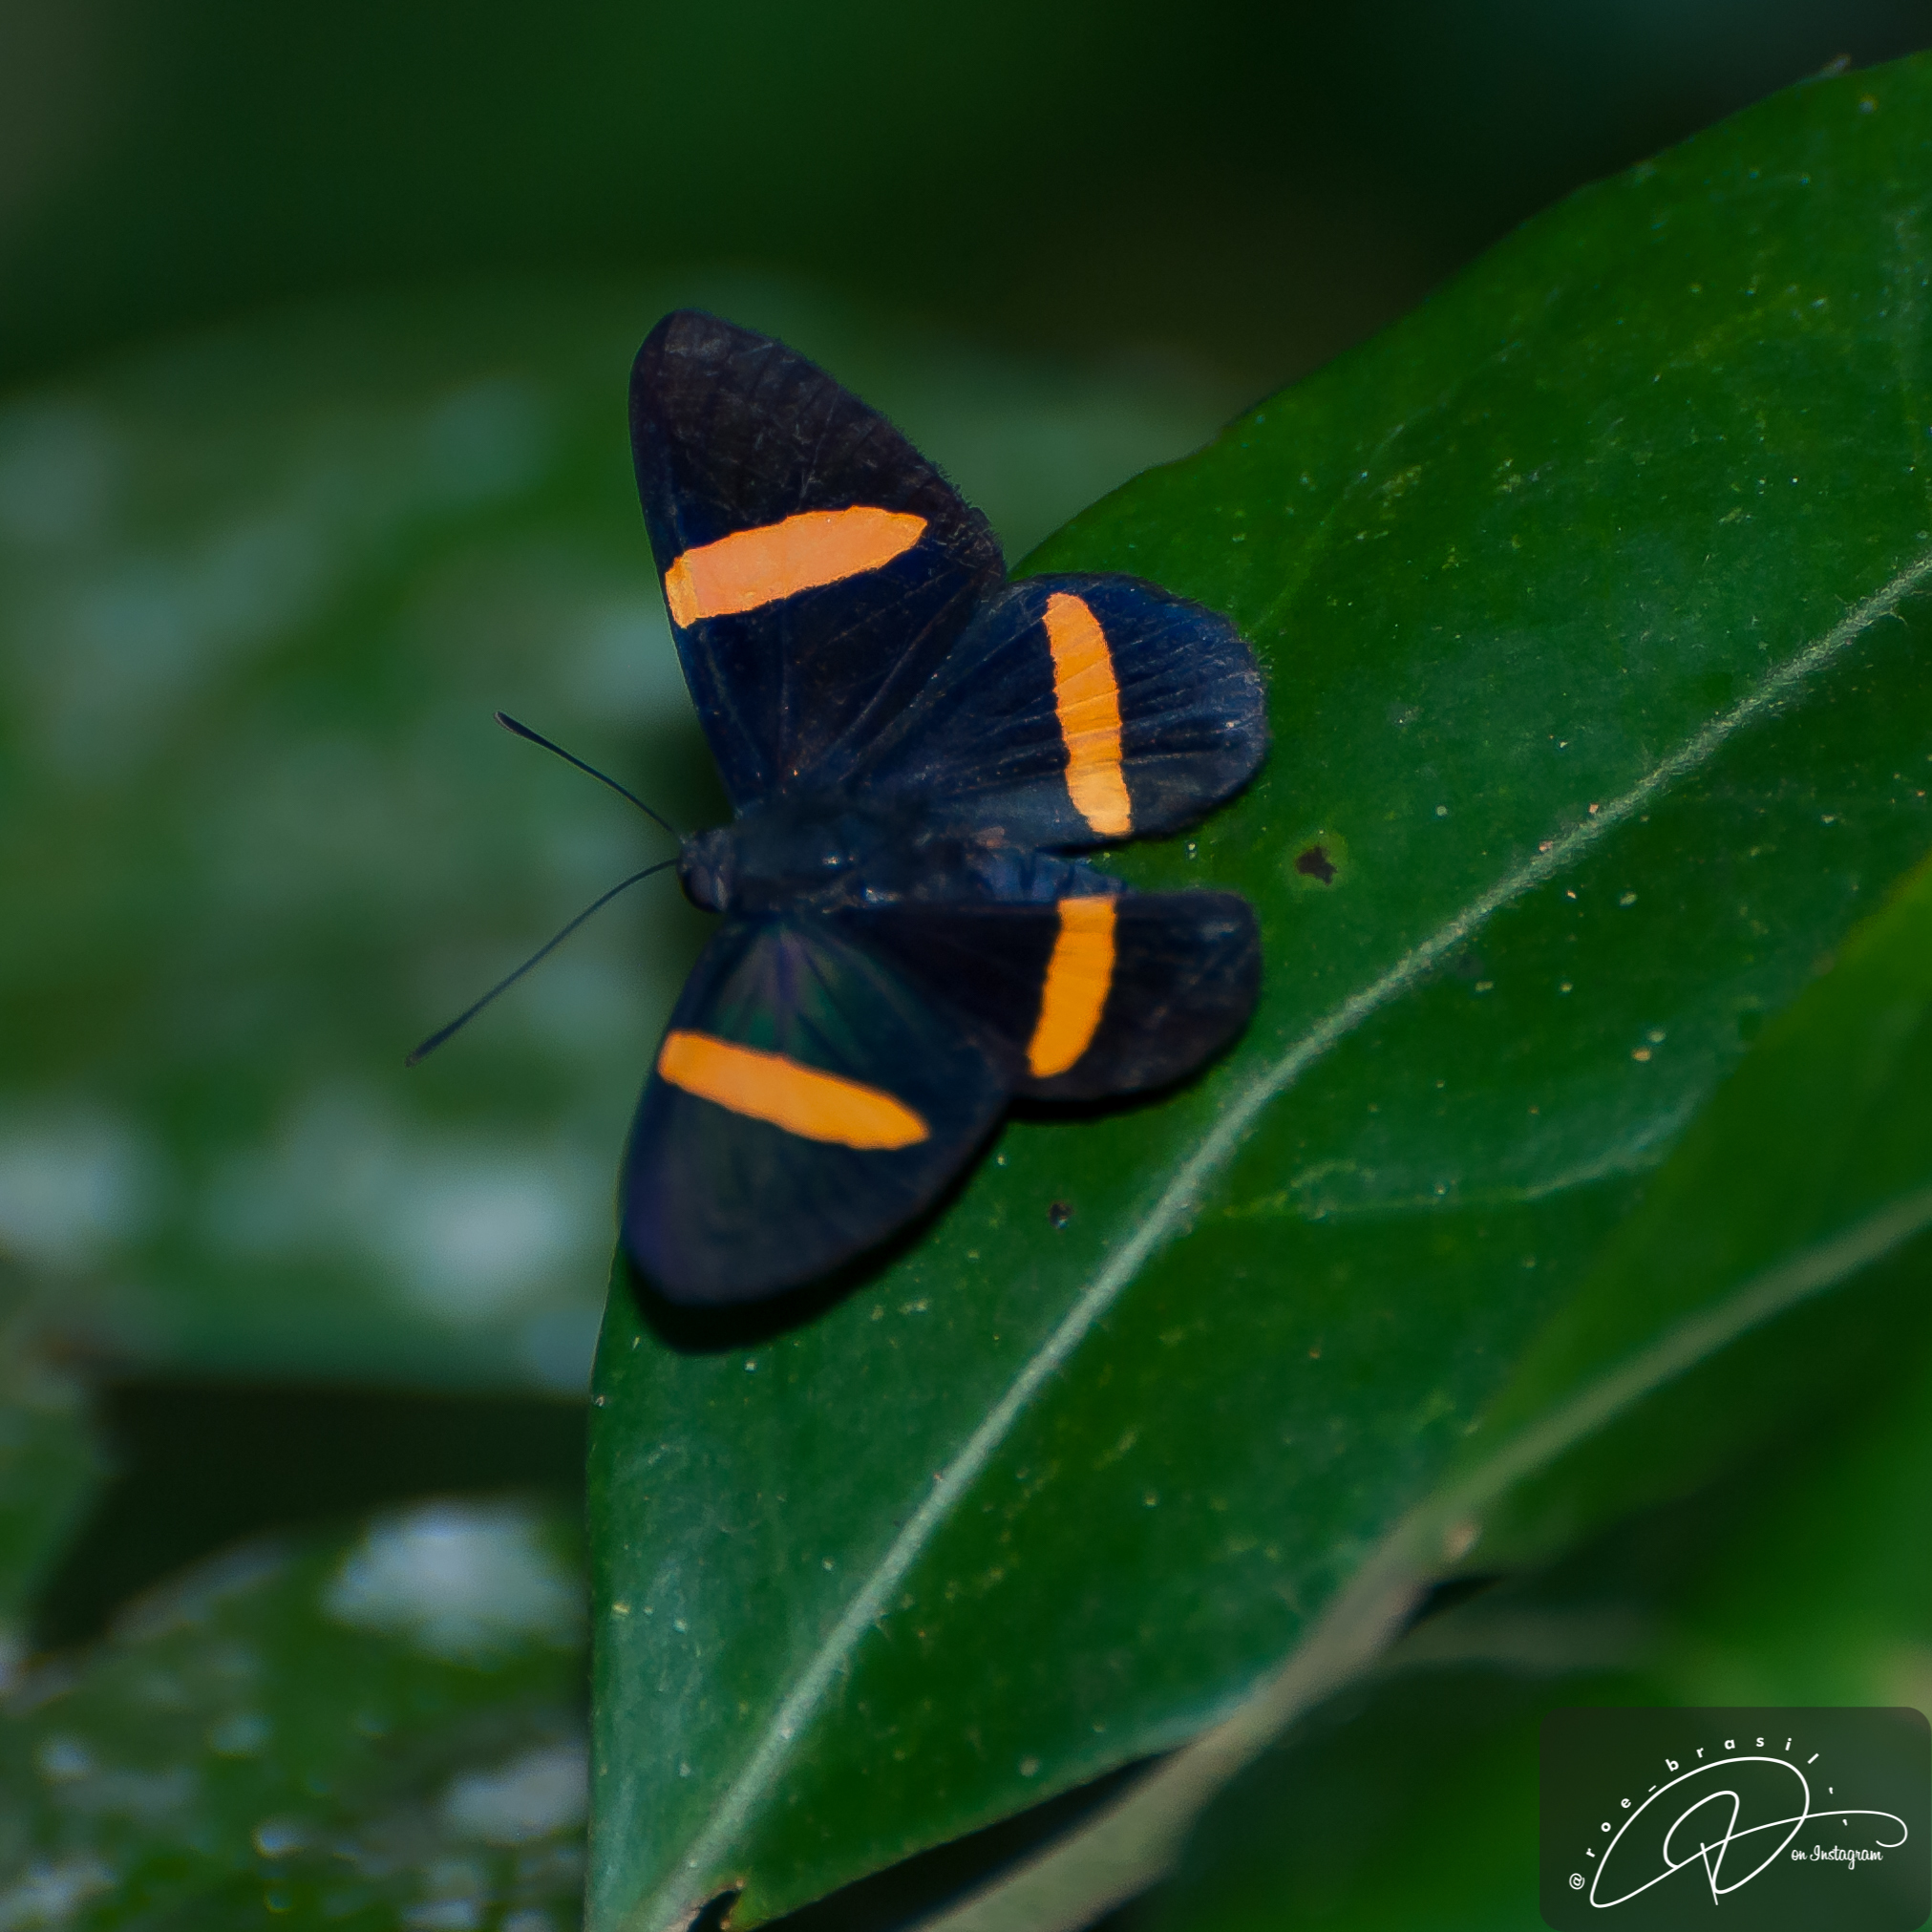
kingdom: Animalia
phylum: Arthropoda
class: Insecta
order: Lepidoptera
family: Riodinidae
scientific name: Riodinidae
